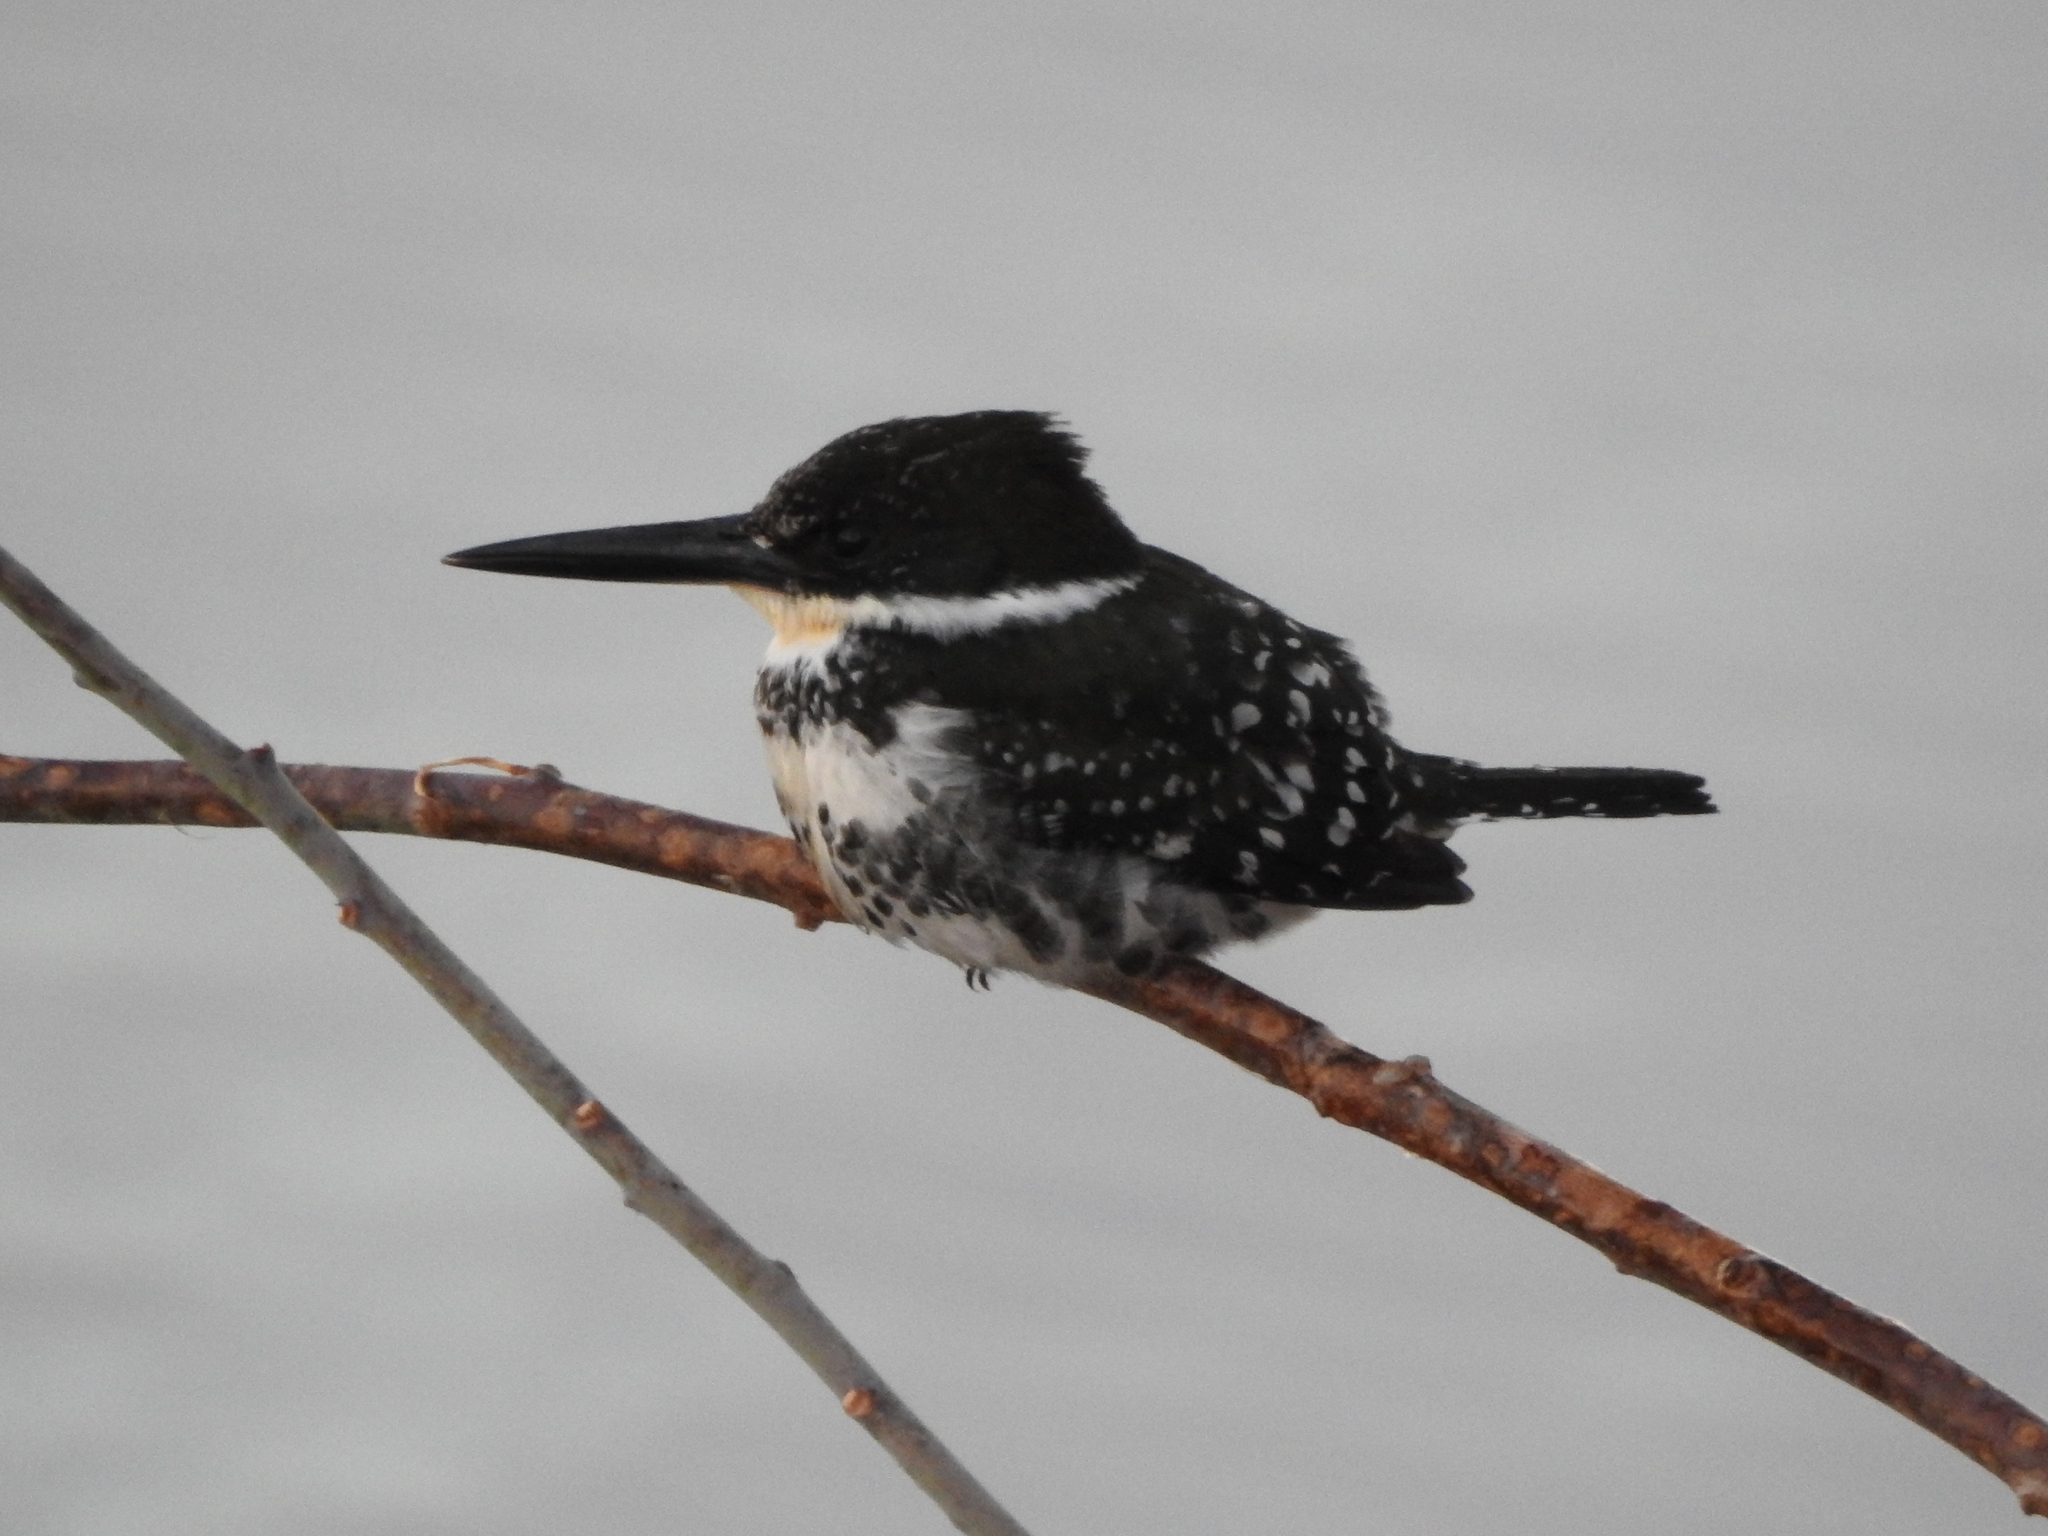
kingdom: Animalia
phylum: Chordata
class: Aves
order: Coraciiformes
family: Alcedinidae
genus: Chloroceryle
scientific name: Chloroceryle americana
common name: Green kingfisher
